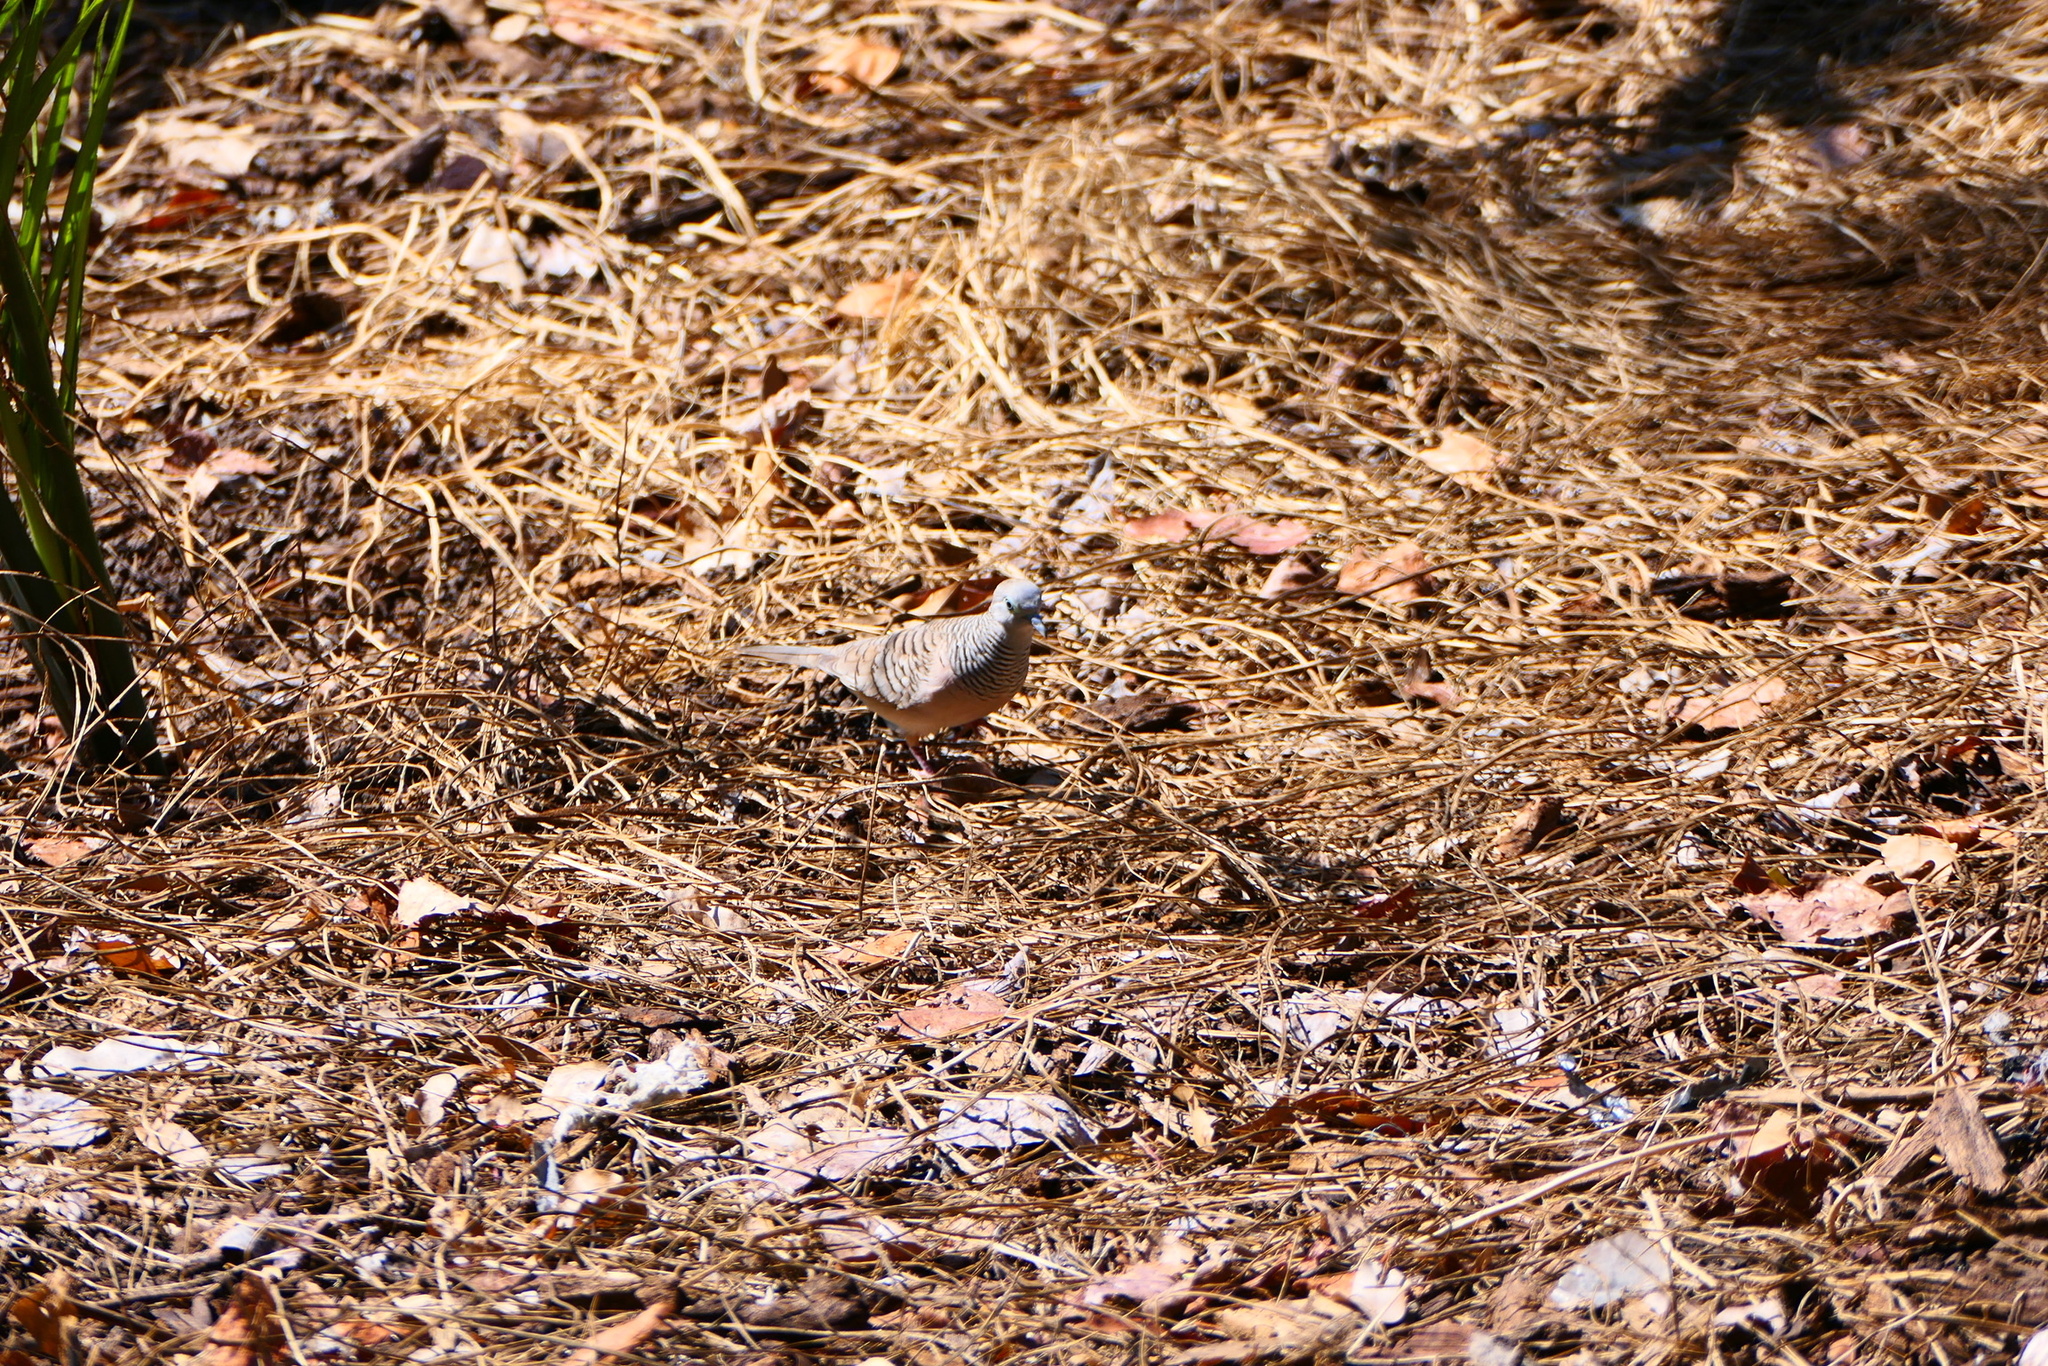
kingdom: Animalia
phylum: Chordata
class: Aves
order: Columbiformes
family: Columbidae
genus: Geopelia
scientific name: Geopelia placida
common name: Peaceful dove
